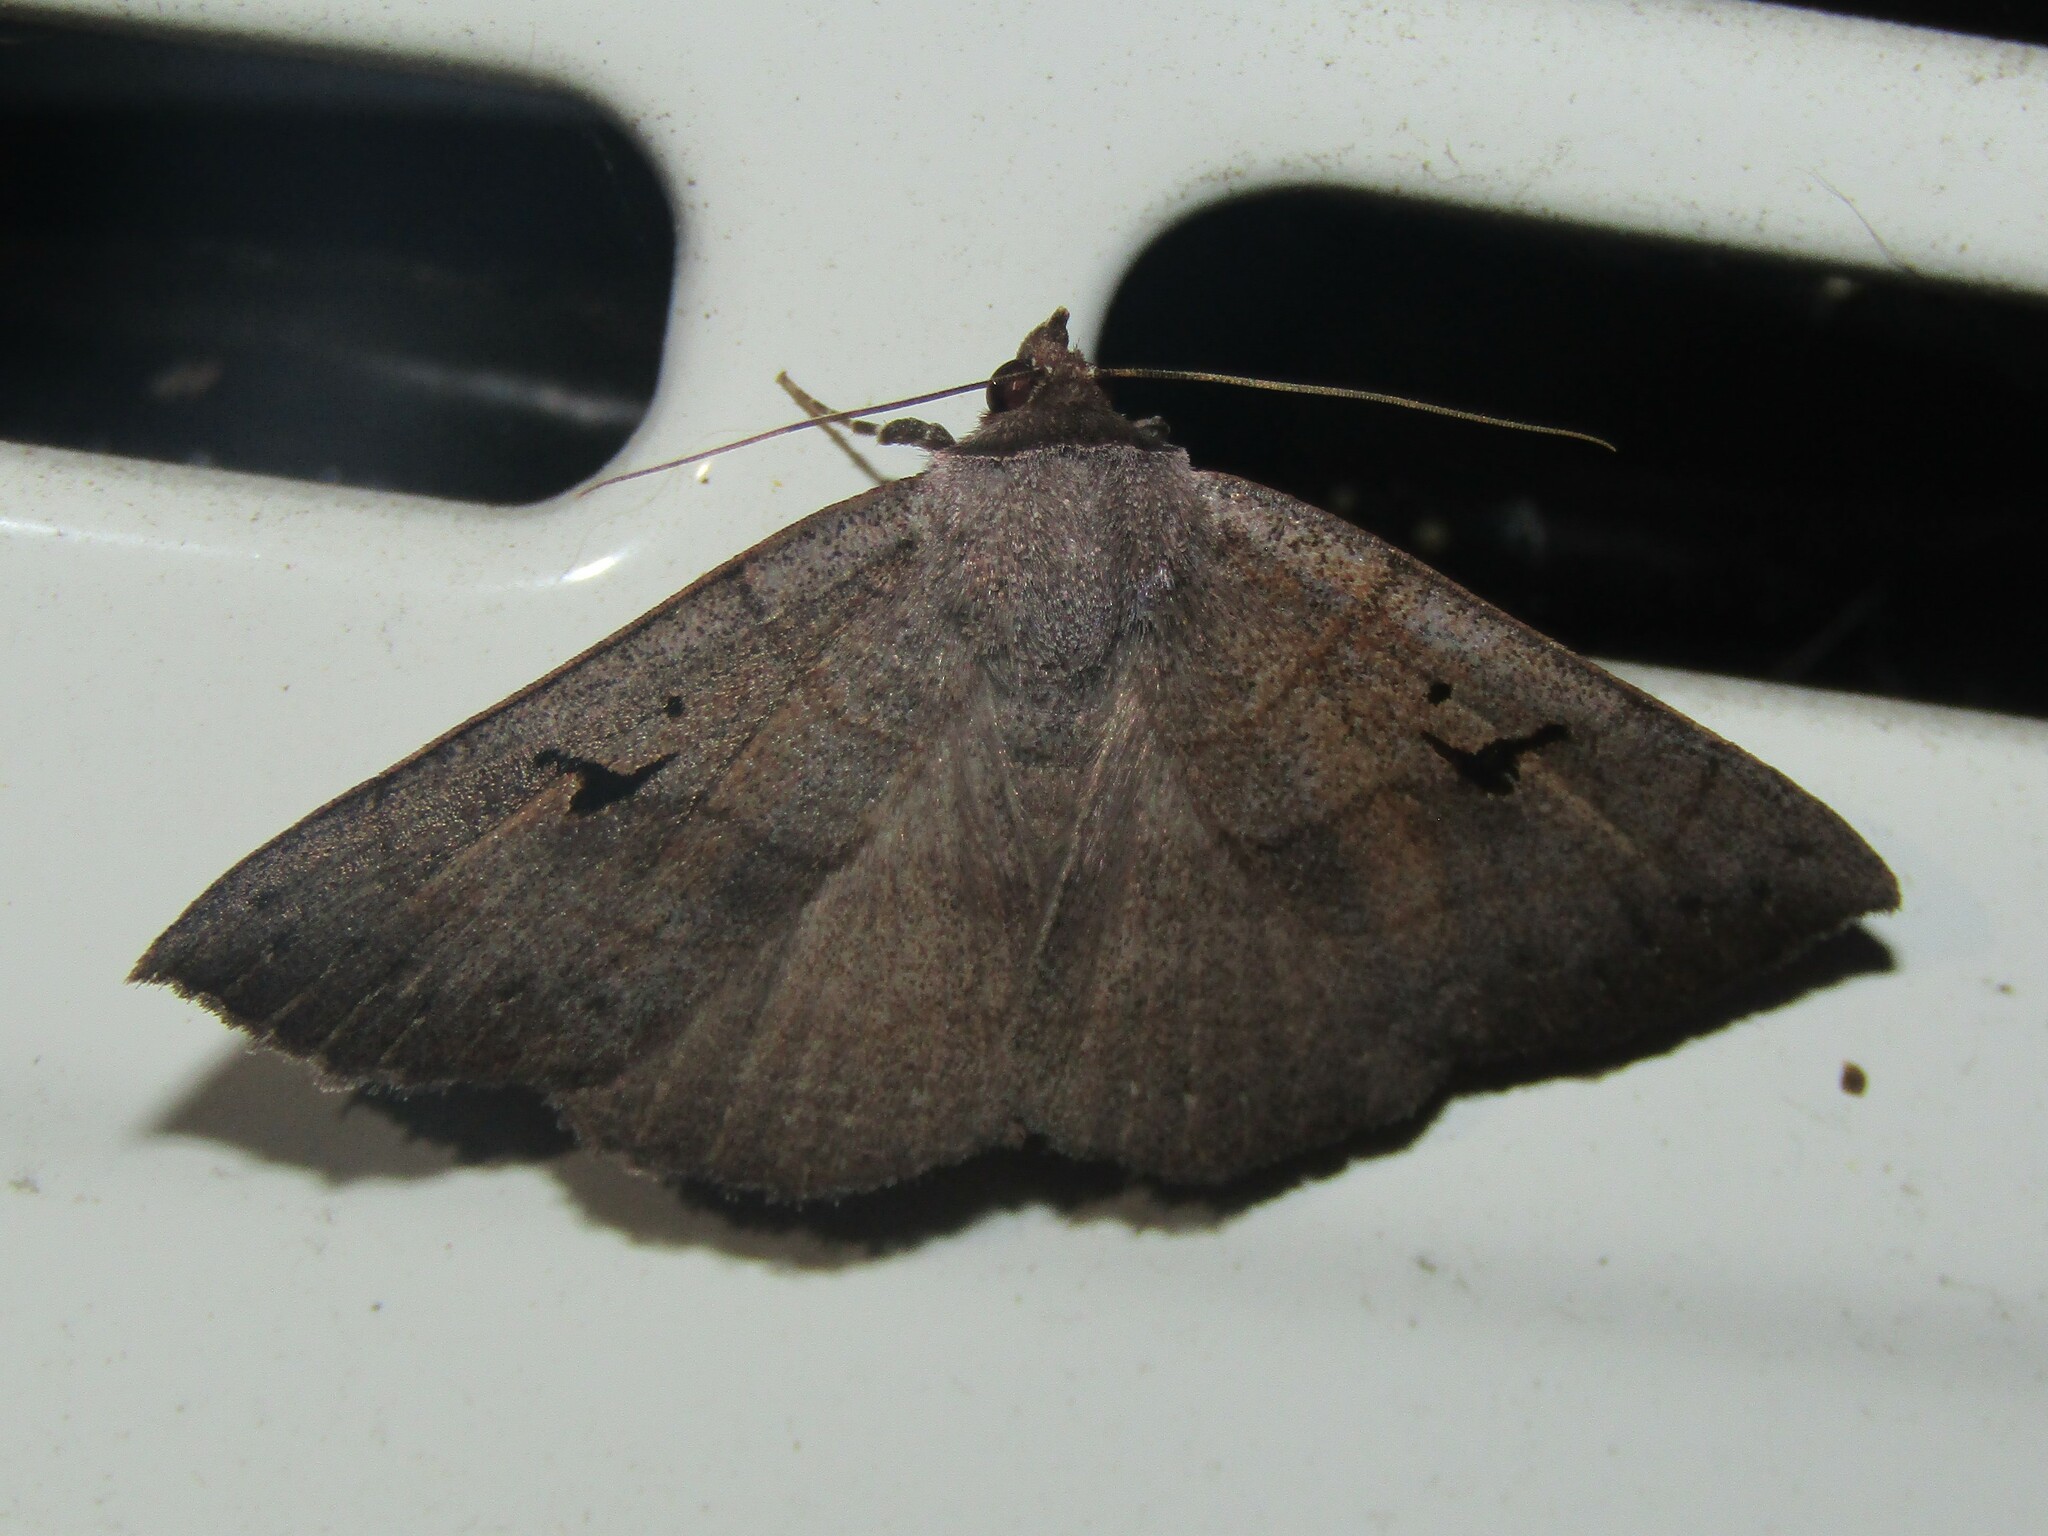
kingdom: Animalia
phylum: Arthropoda
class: Insecta
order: Lepidoptera
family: Erebidae
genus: Panopoda
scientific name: Panopoda carneicosta
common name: Brown panopoda moth
